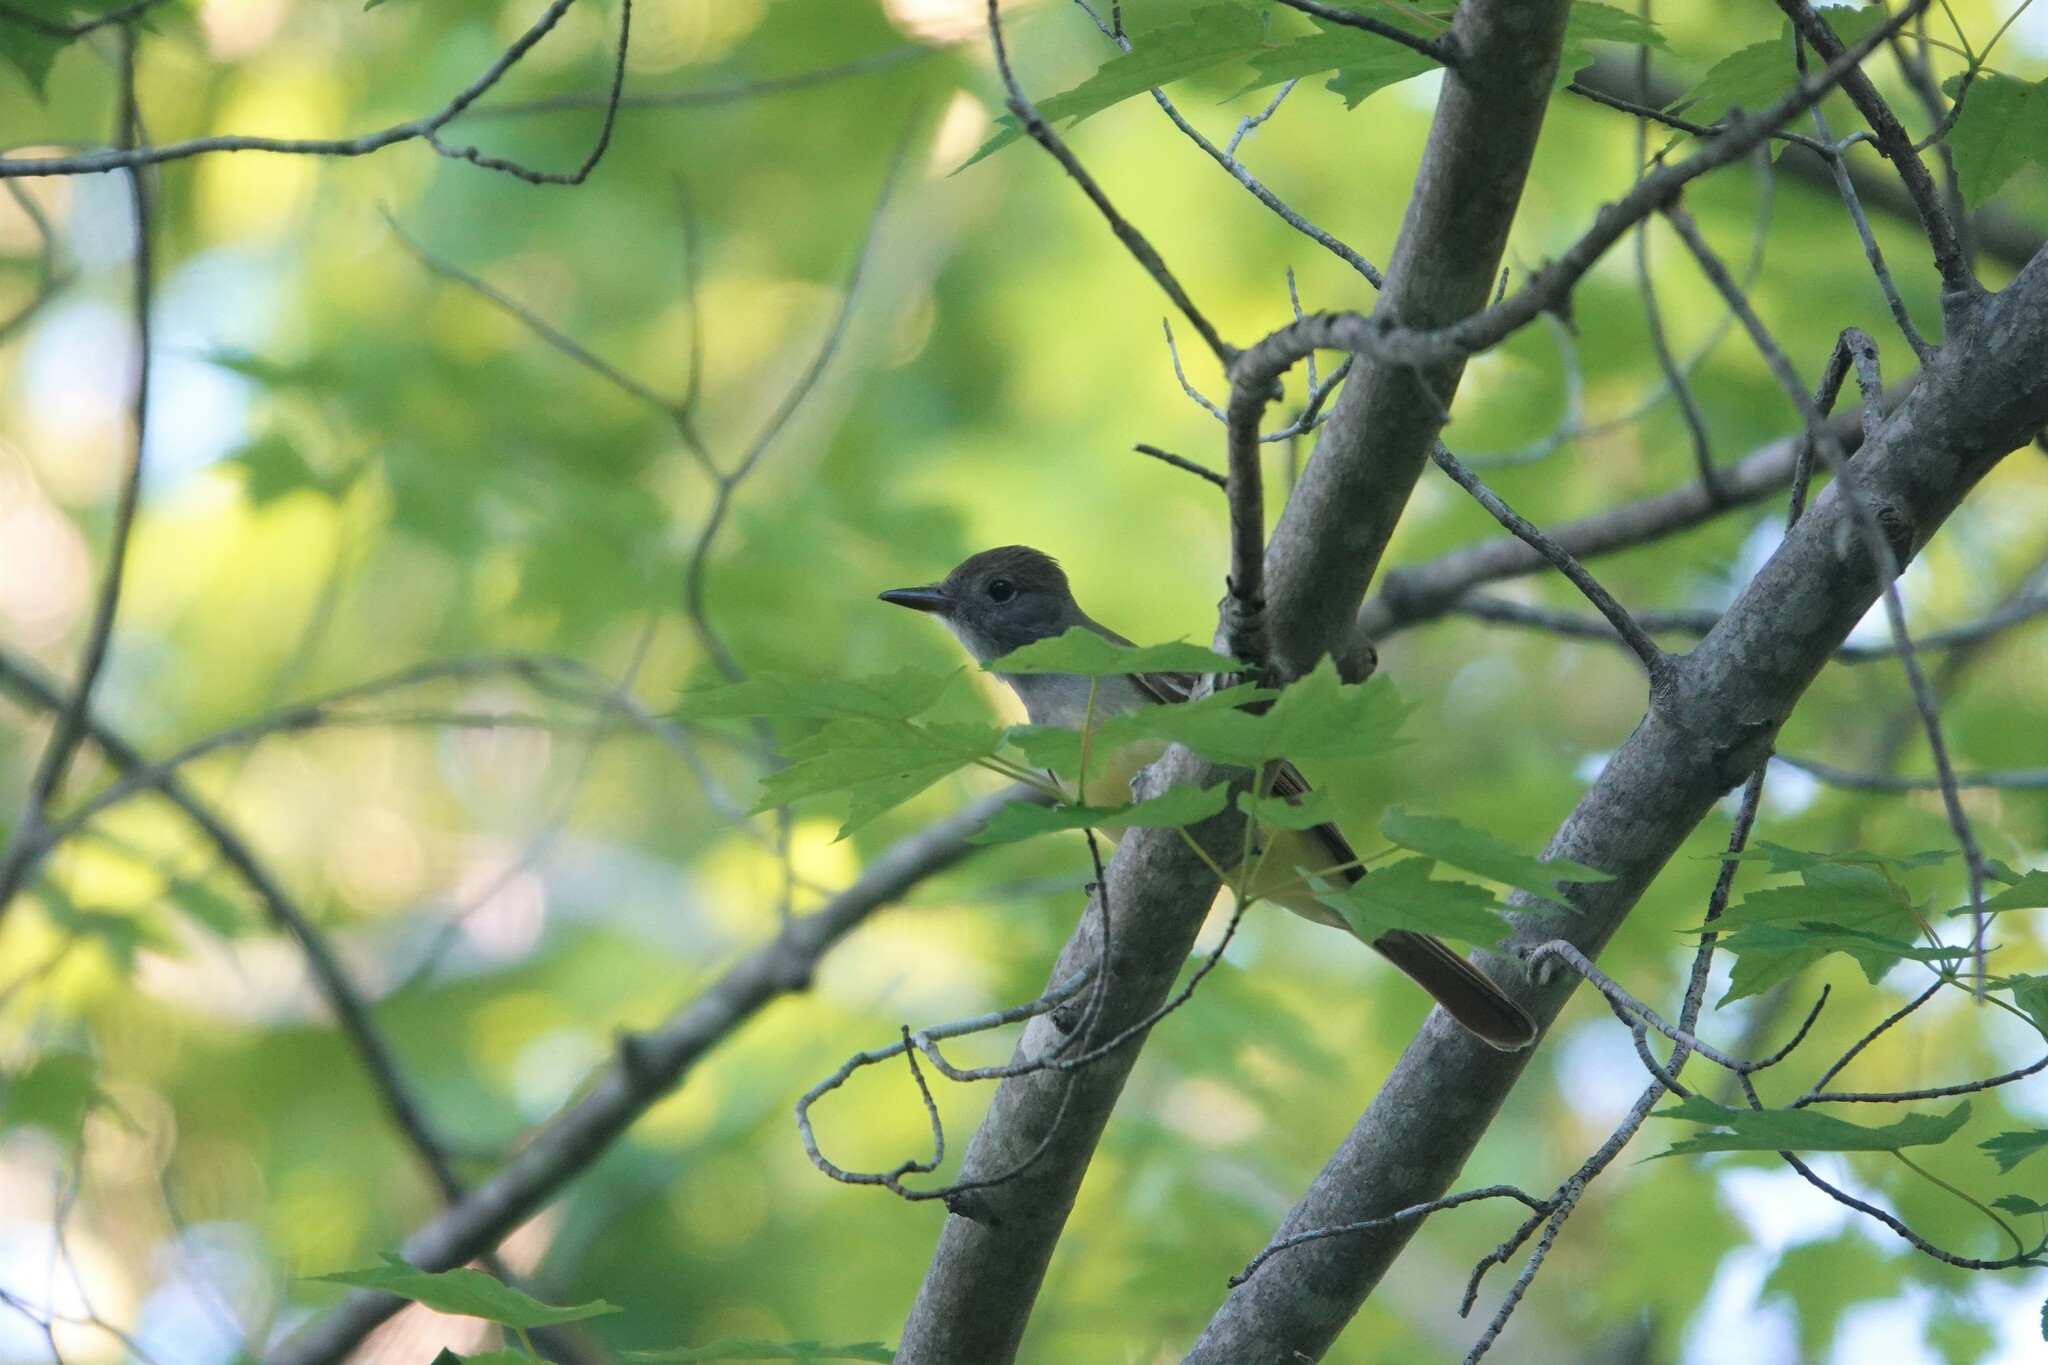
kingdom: Animalia
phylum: Chordata
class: Aves
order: Passeriformes
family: Tyrannidae
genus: Myiarchus
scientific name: Myiarchus crinitus
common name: Great crested flycatcher
